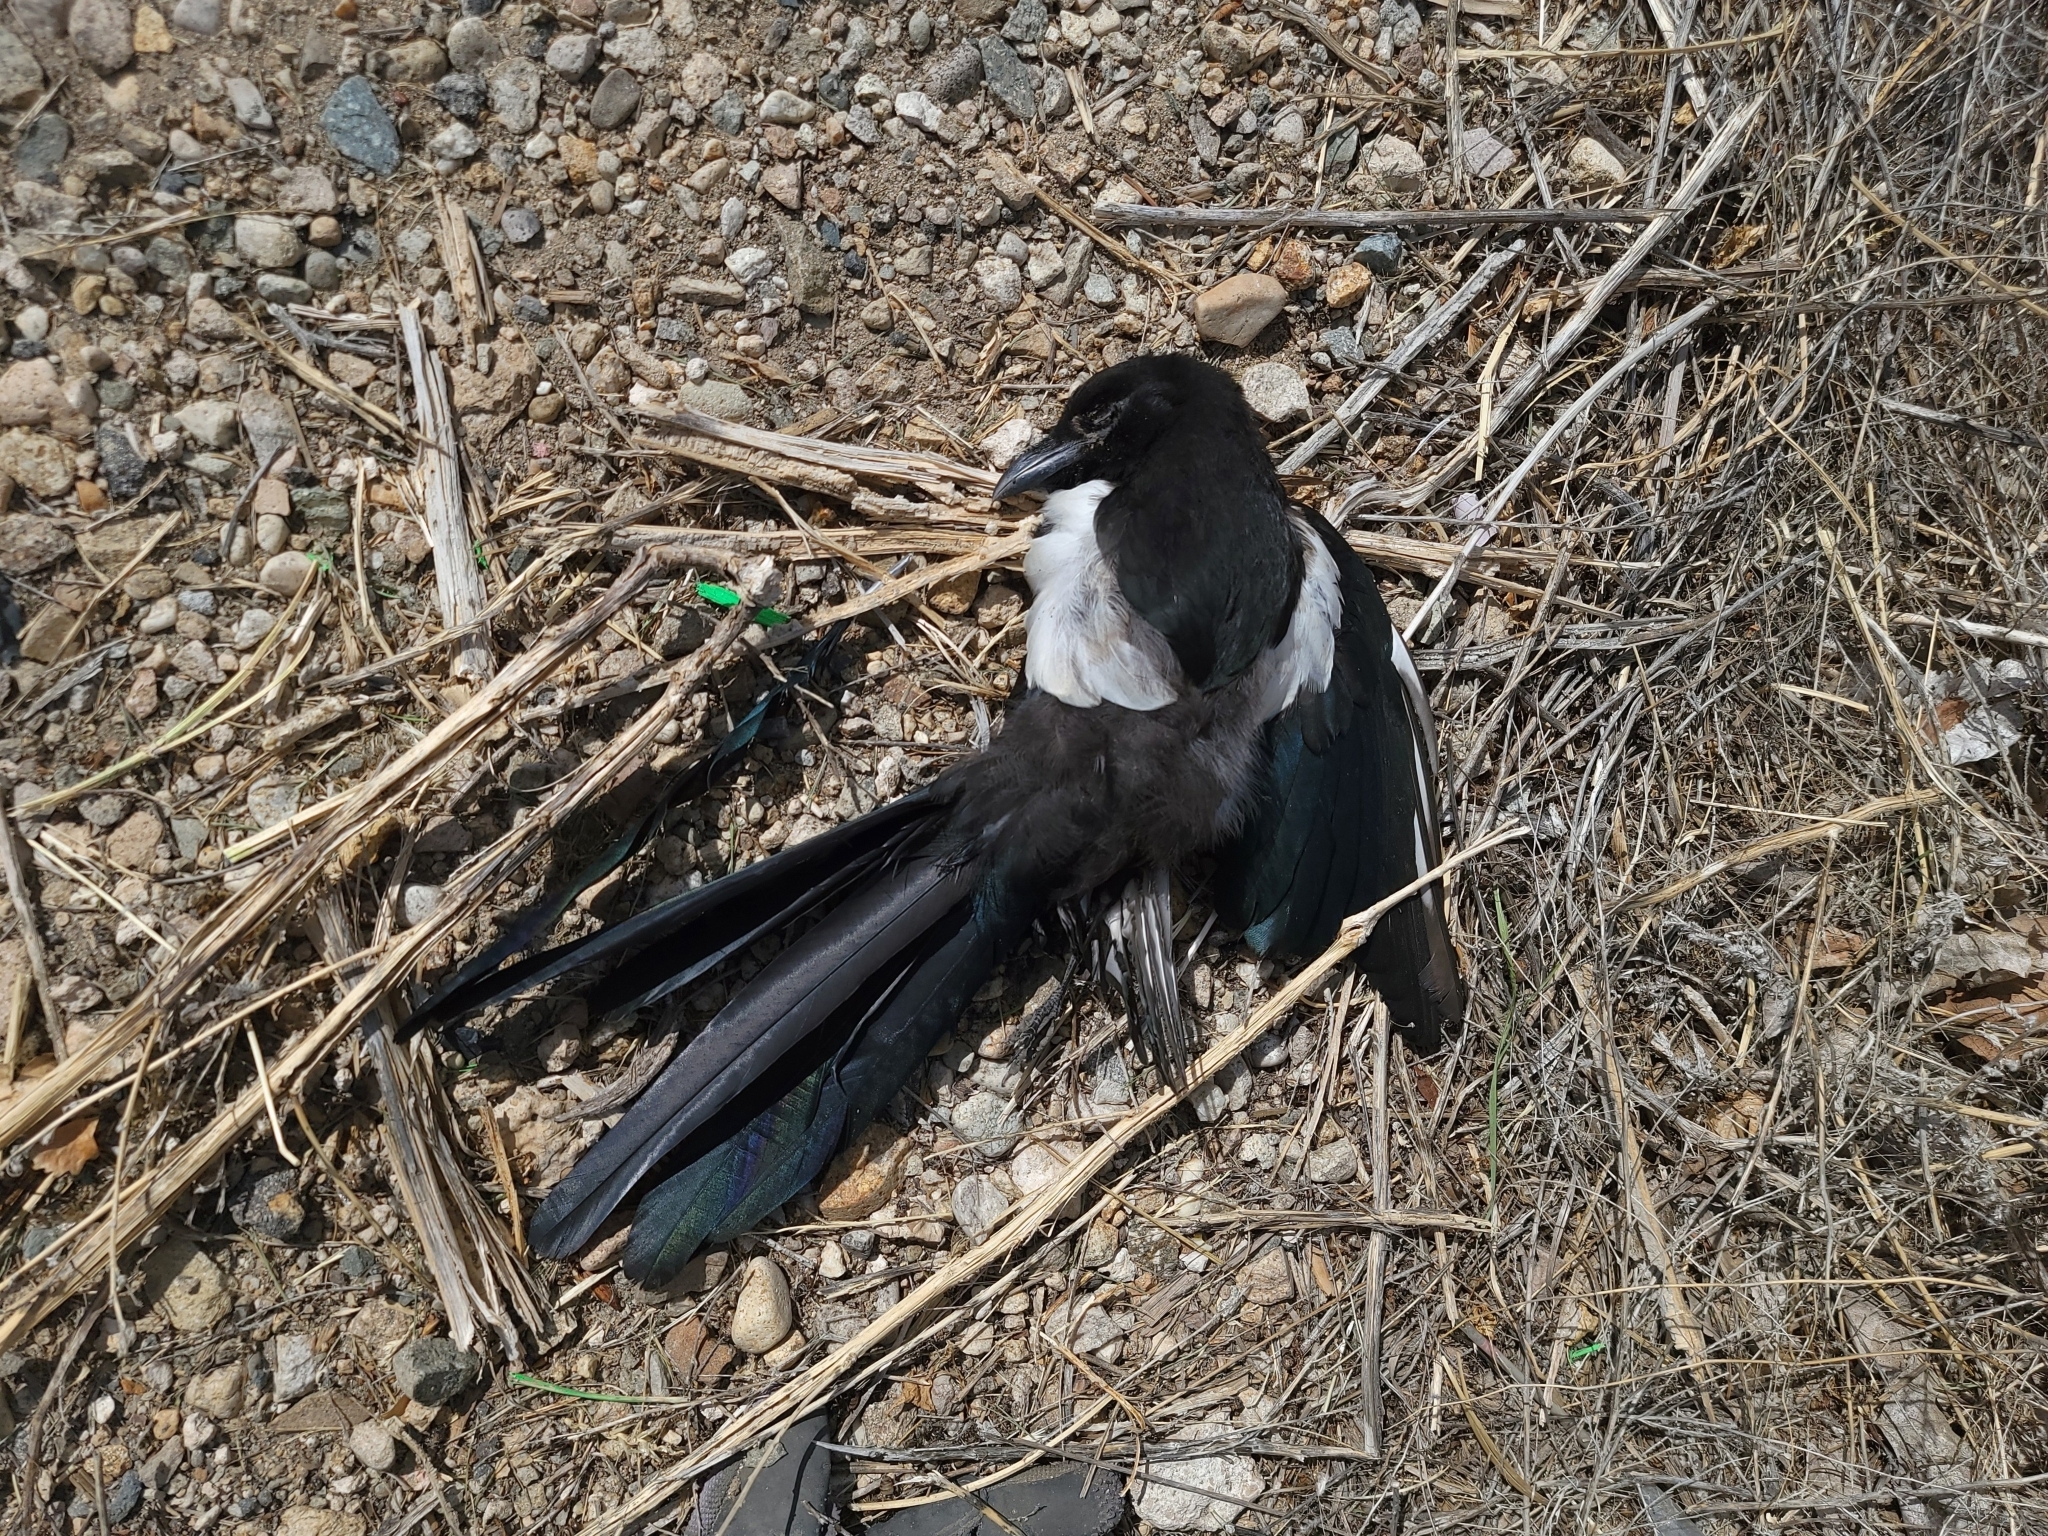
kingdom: Animalia
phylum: Chordata
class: Aves
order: Passeriformes
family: Corvidae
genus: Pica
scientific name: Pica hudsonia
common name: Black-billed magpie
